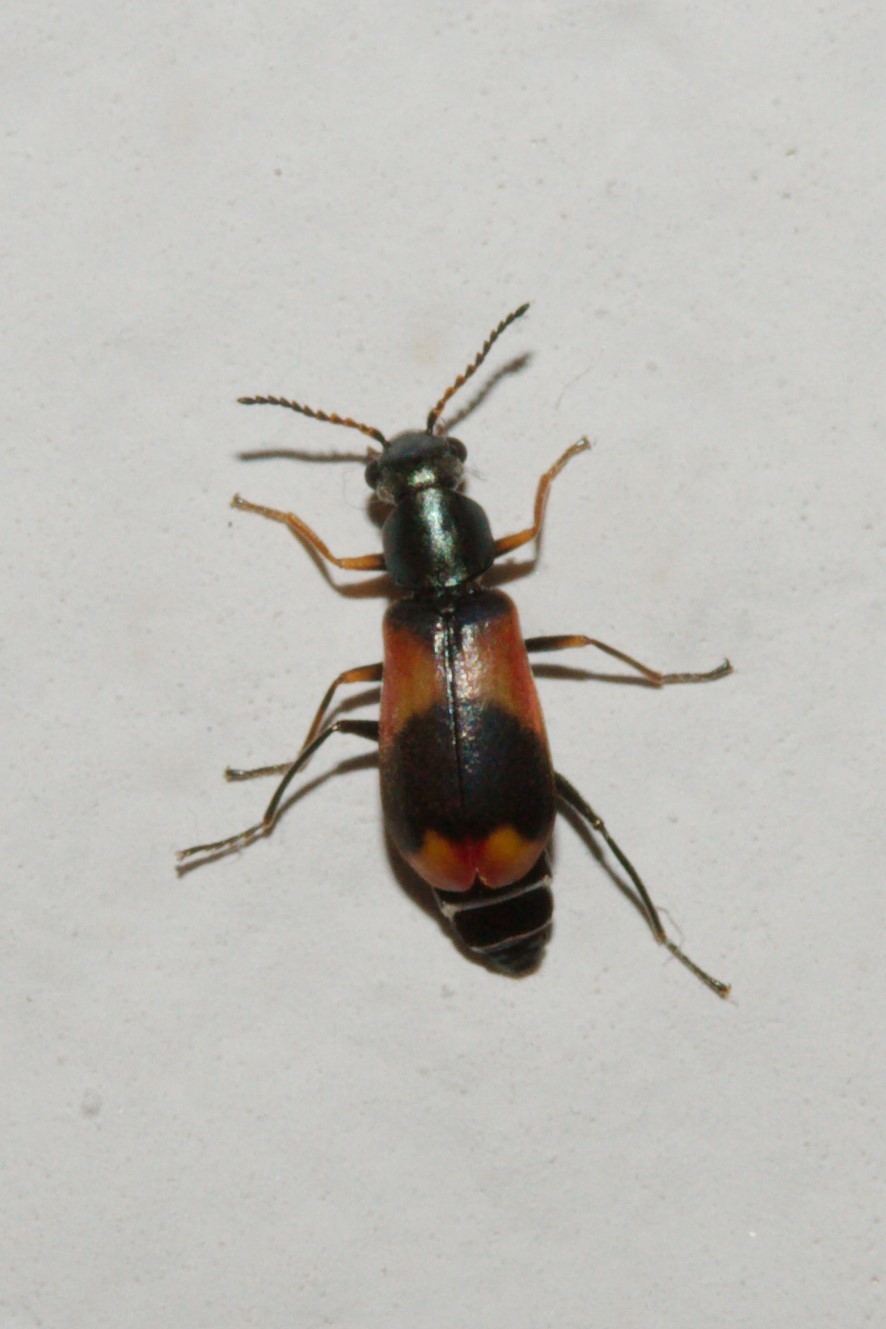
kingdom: Animalia
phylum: Arthropoda
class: Insecta
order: Coleoptera
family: Melyridae
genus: Anthocomus
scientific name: Anthocomus equestris
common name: Black-banded soft-winged flower beetle
